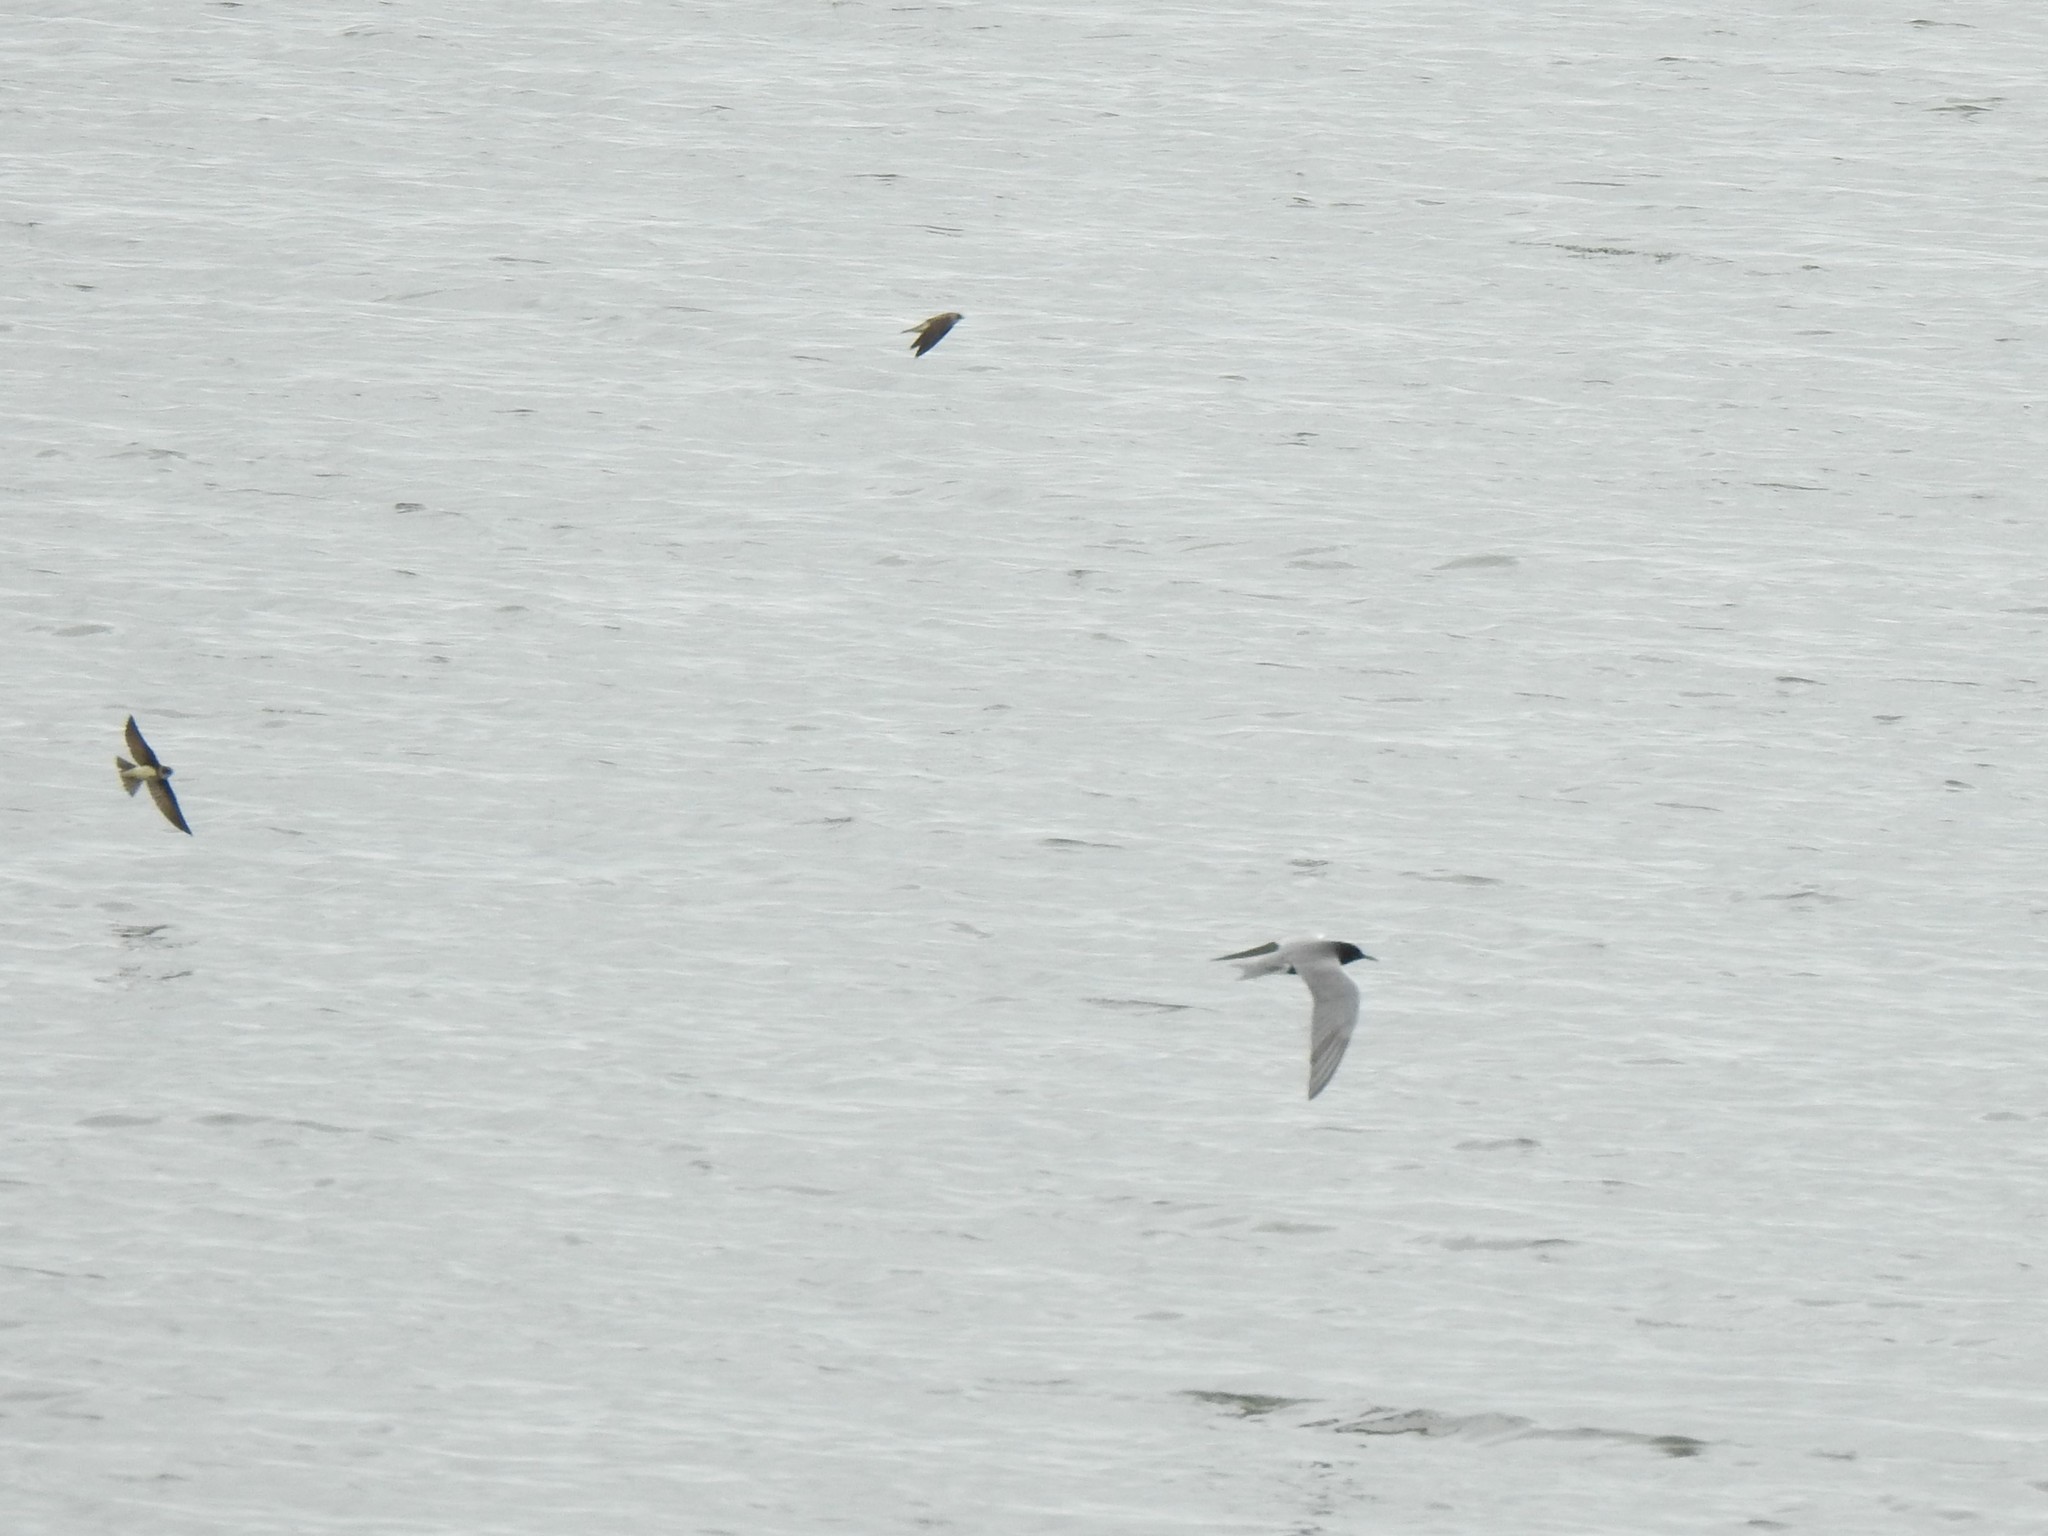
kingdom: Animalia
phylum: Chordata
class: Aves
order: Charadriiformes
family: Laridae
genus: Chlidonias
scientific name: Chlidonias niger
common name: Black tern
